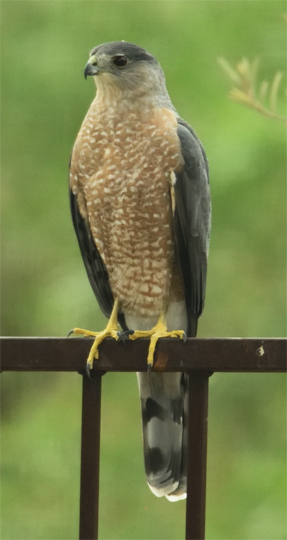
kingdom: Animalia
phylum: Chordata
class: Aves
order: Accipitriformes
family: Accipitridae
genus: Accipiter
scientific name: Accipiter cooperii
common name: Cooper's hawk
